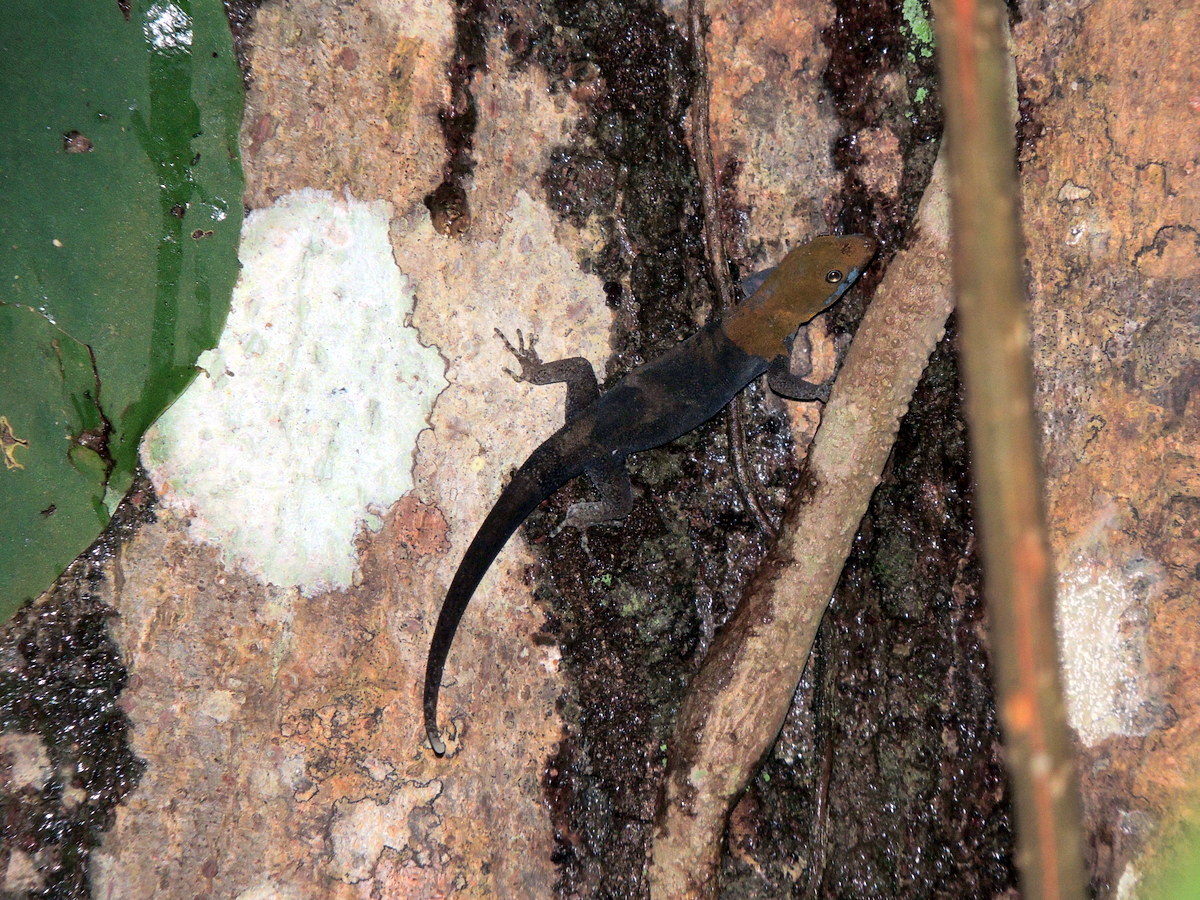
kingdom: Animalia
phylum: Chordata
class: Squamata
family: Sphaerodactylidae
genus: Gonatodes
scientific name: Gonatodes albogularis
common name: Yellow-headed gecko
